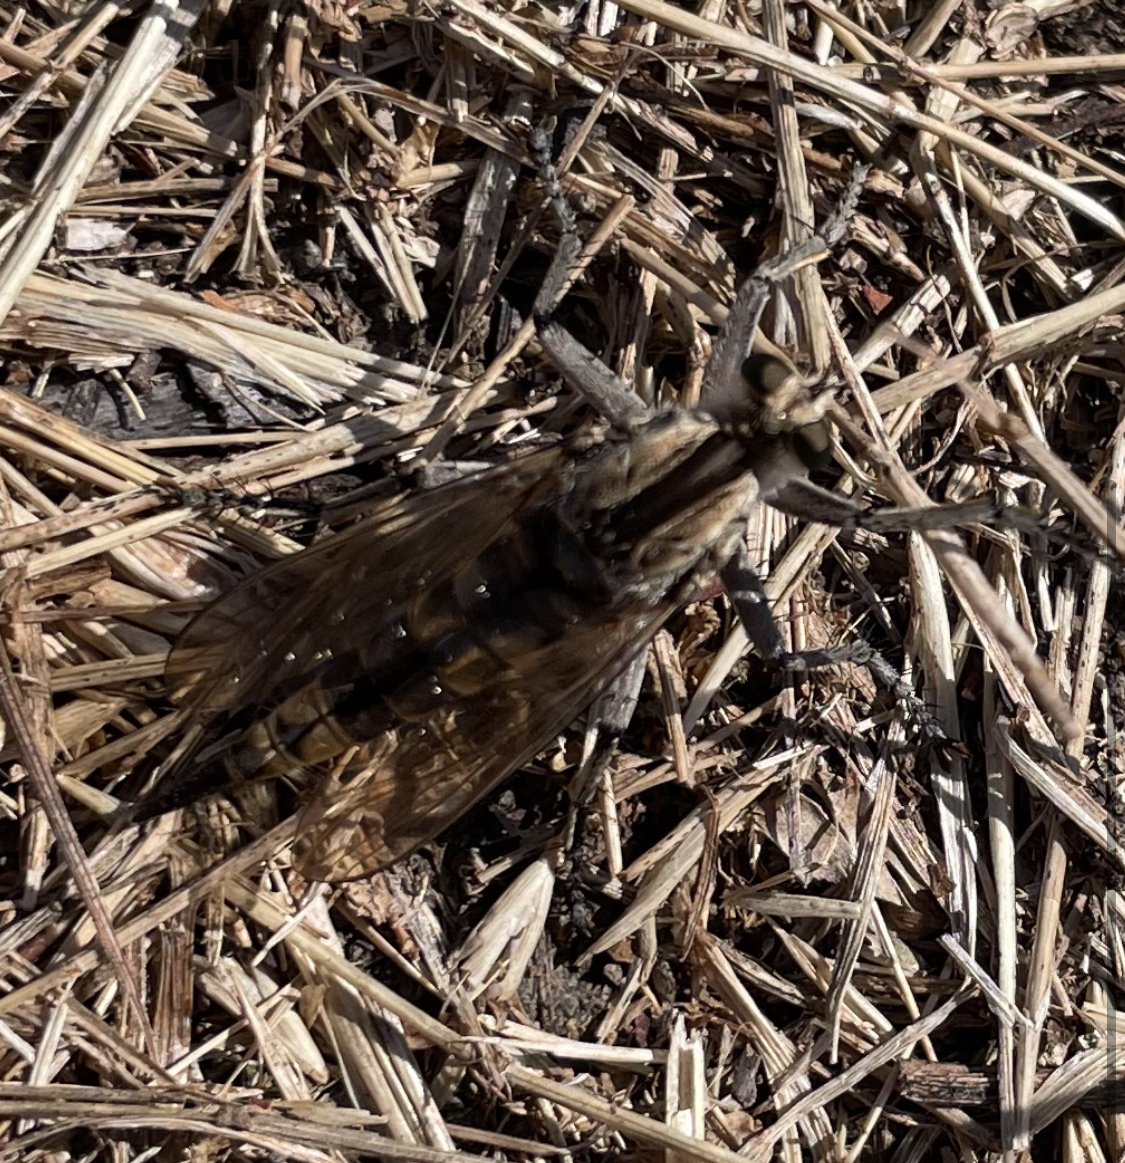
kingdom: Animalia
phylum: Arthropoda
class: Insecta
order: Diptera
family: Asilidae
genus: Triorla
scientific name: Triorla interrupta
